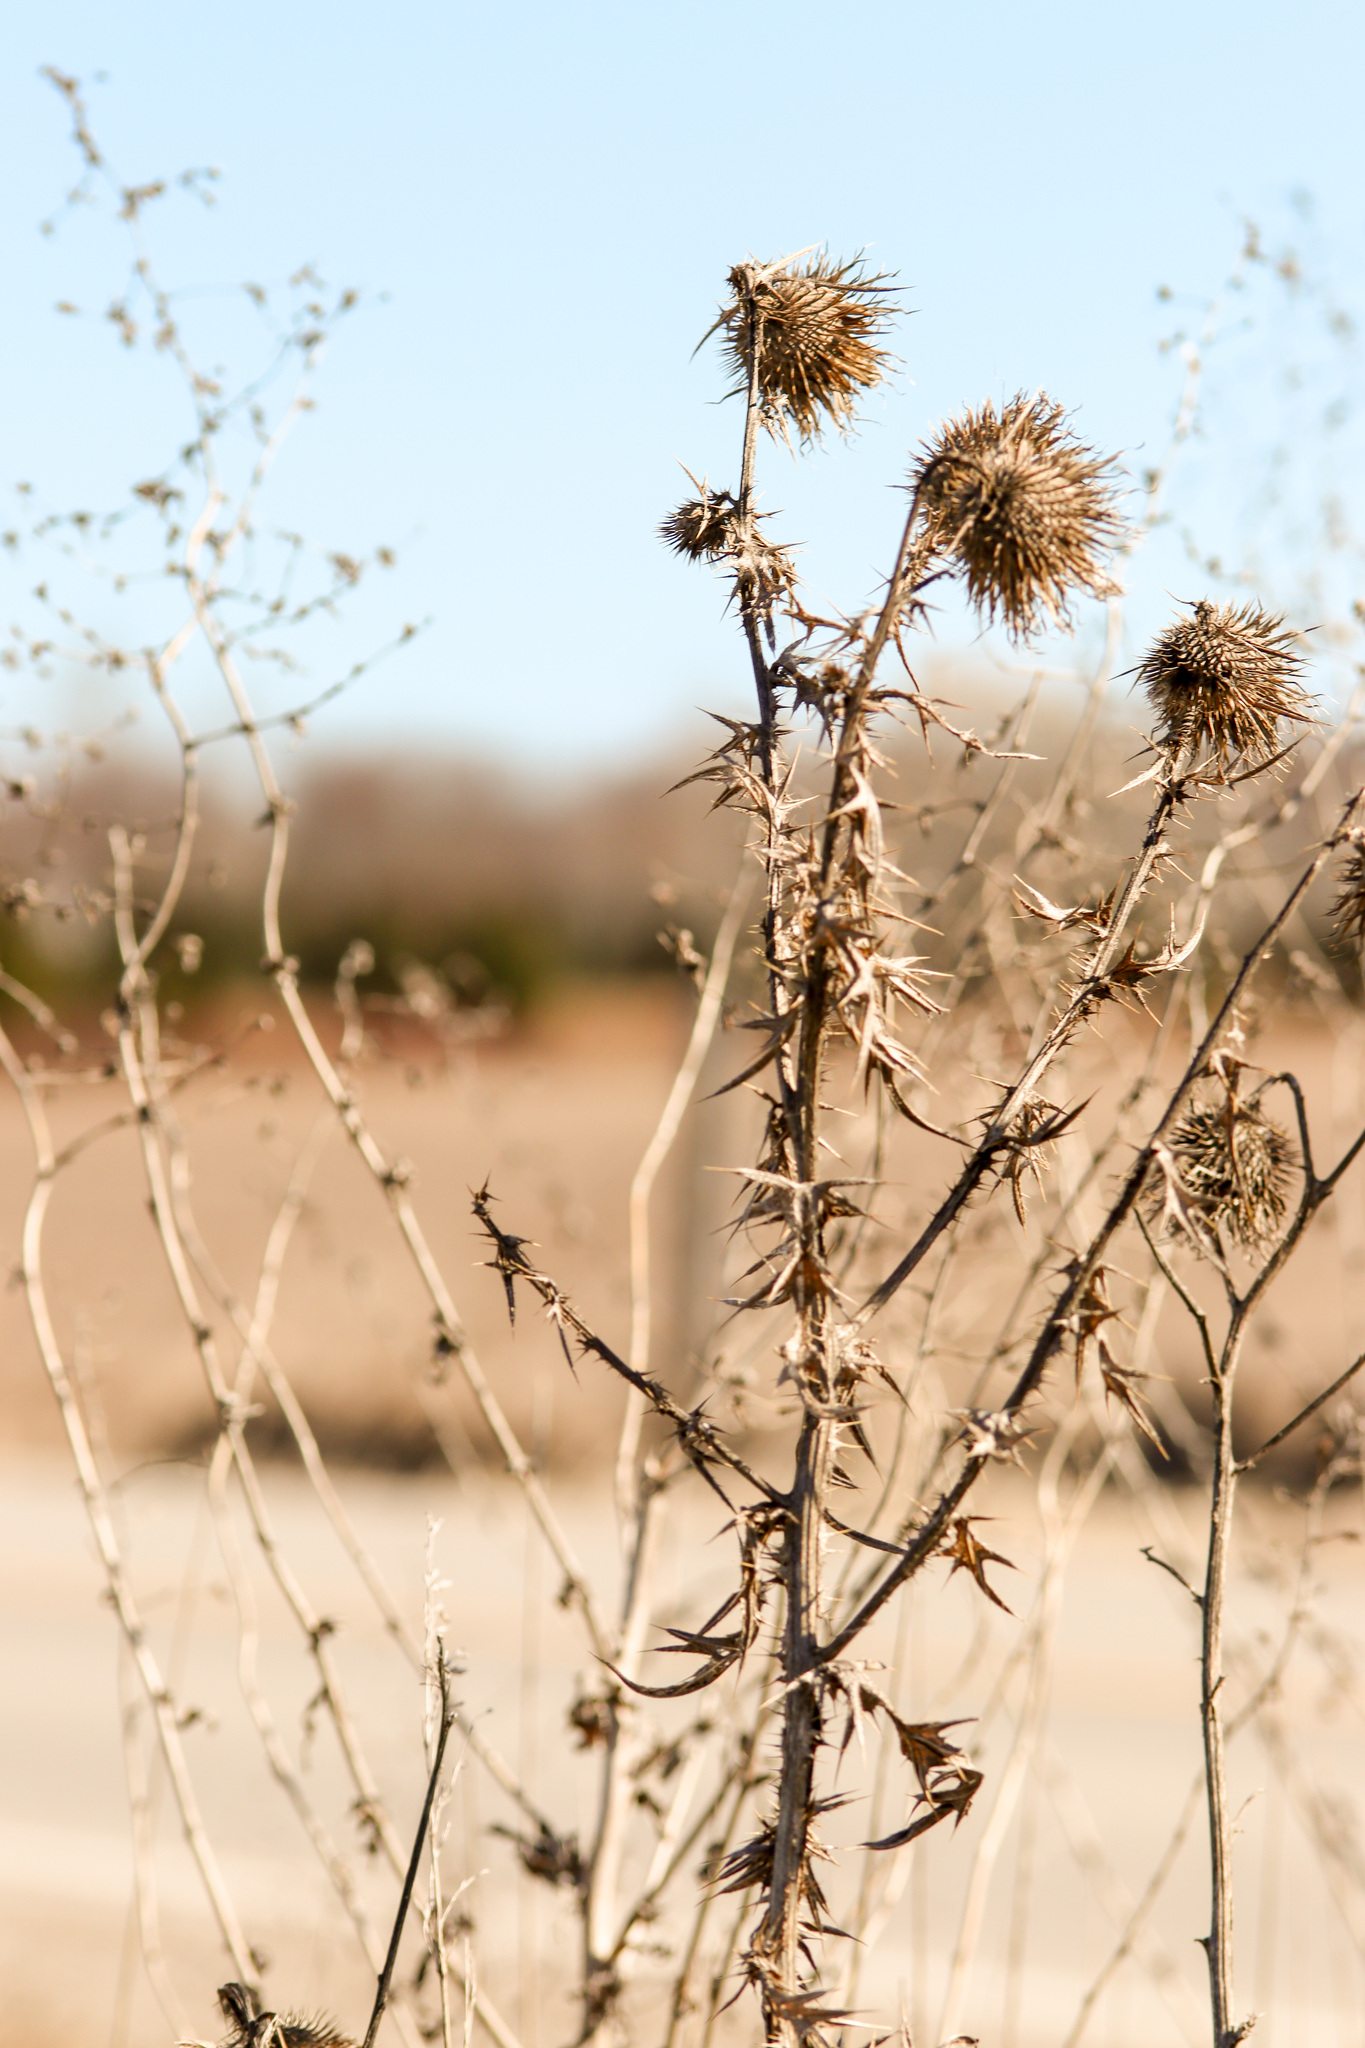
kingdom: Plantae
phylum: Tracheophyta
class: Magnoliopsida
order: Asterales
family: Asteraceae
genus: Cirsium
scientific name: Cirsium vulgare
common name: Bull thistle
